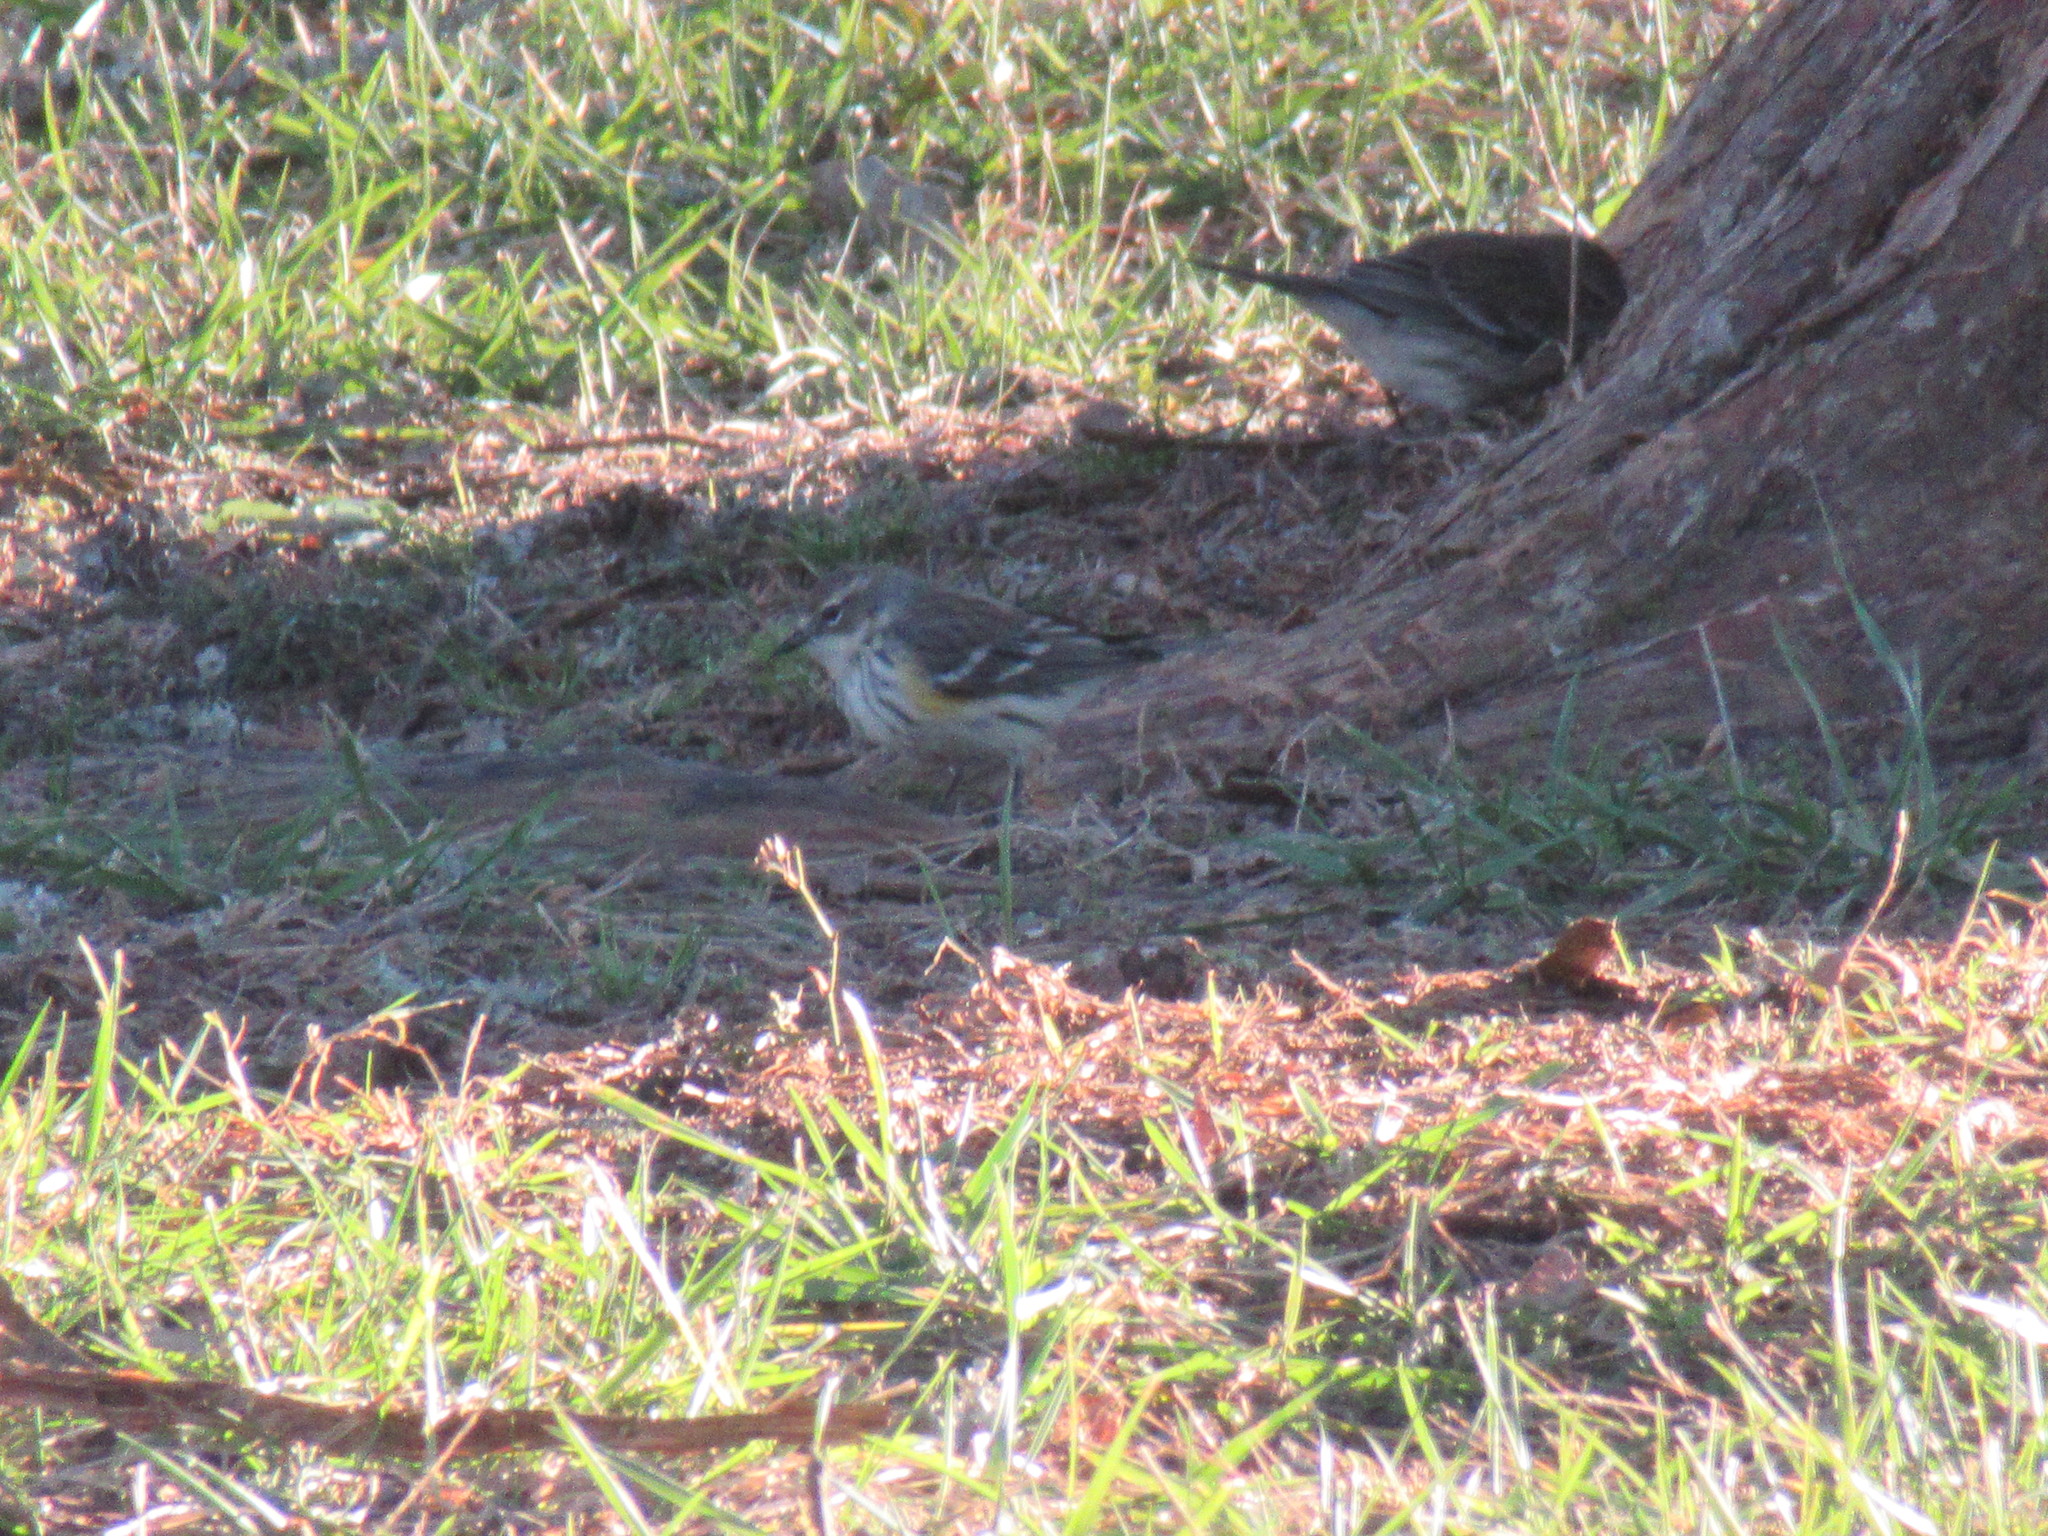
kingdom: Animalia
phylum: Chordata
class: Aves
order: Passeriformes
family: Parulidae
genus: Setophaga
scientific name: Setophaga coronata
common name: Myrtle warbler
